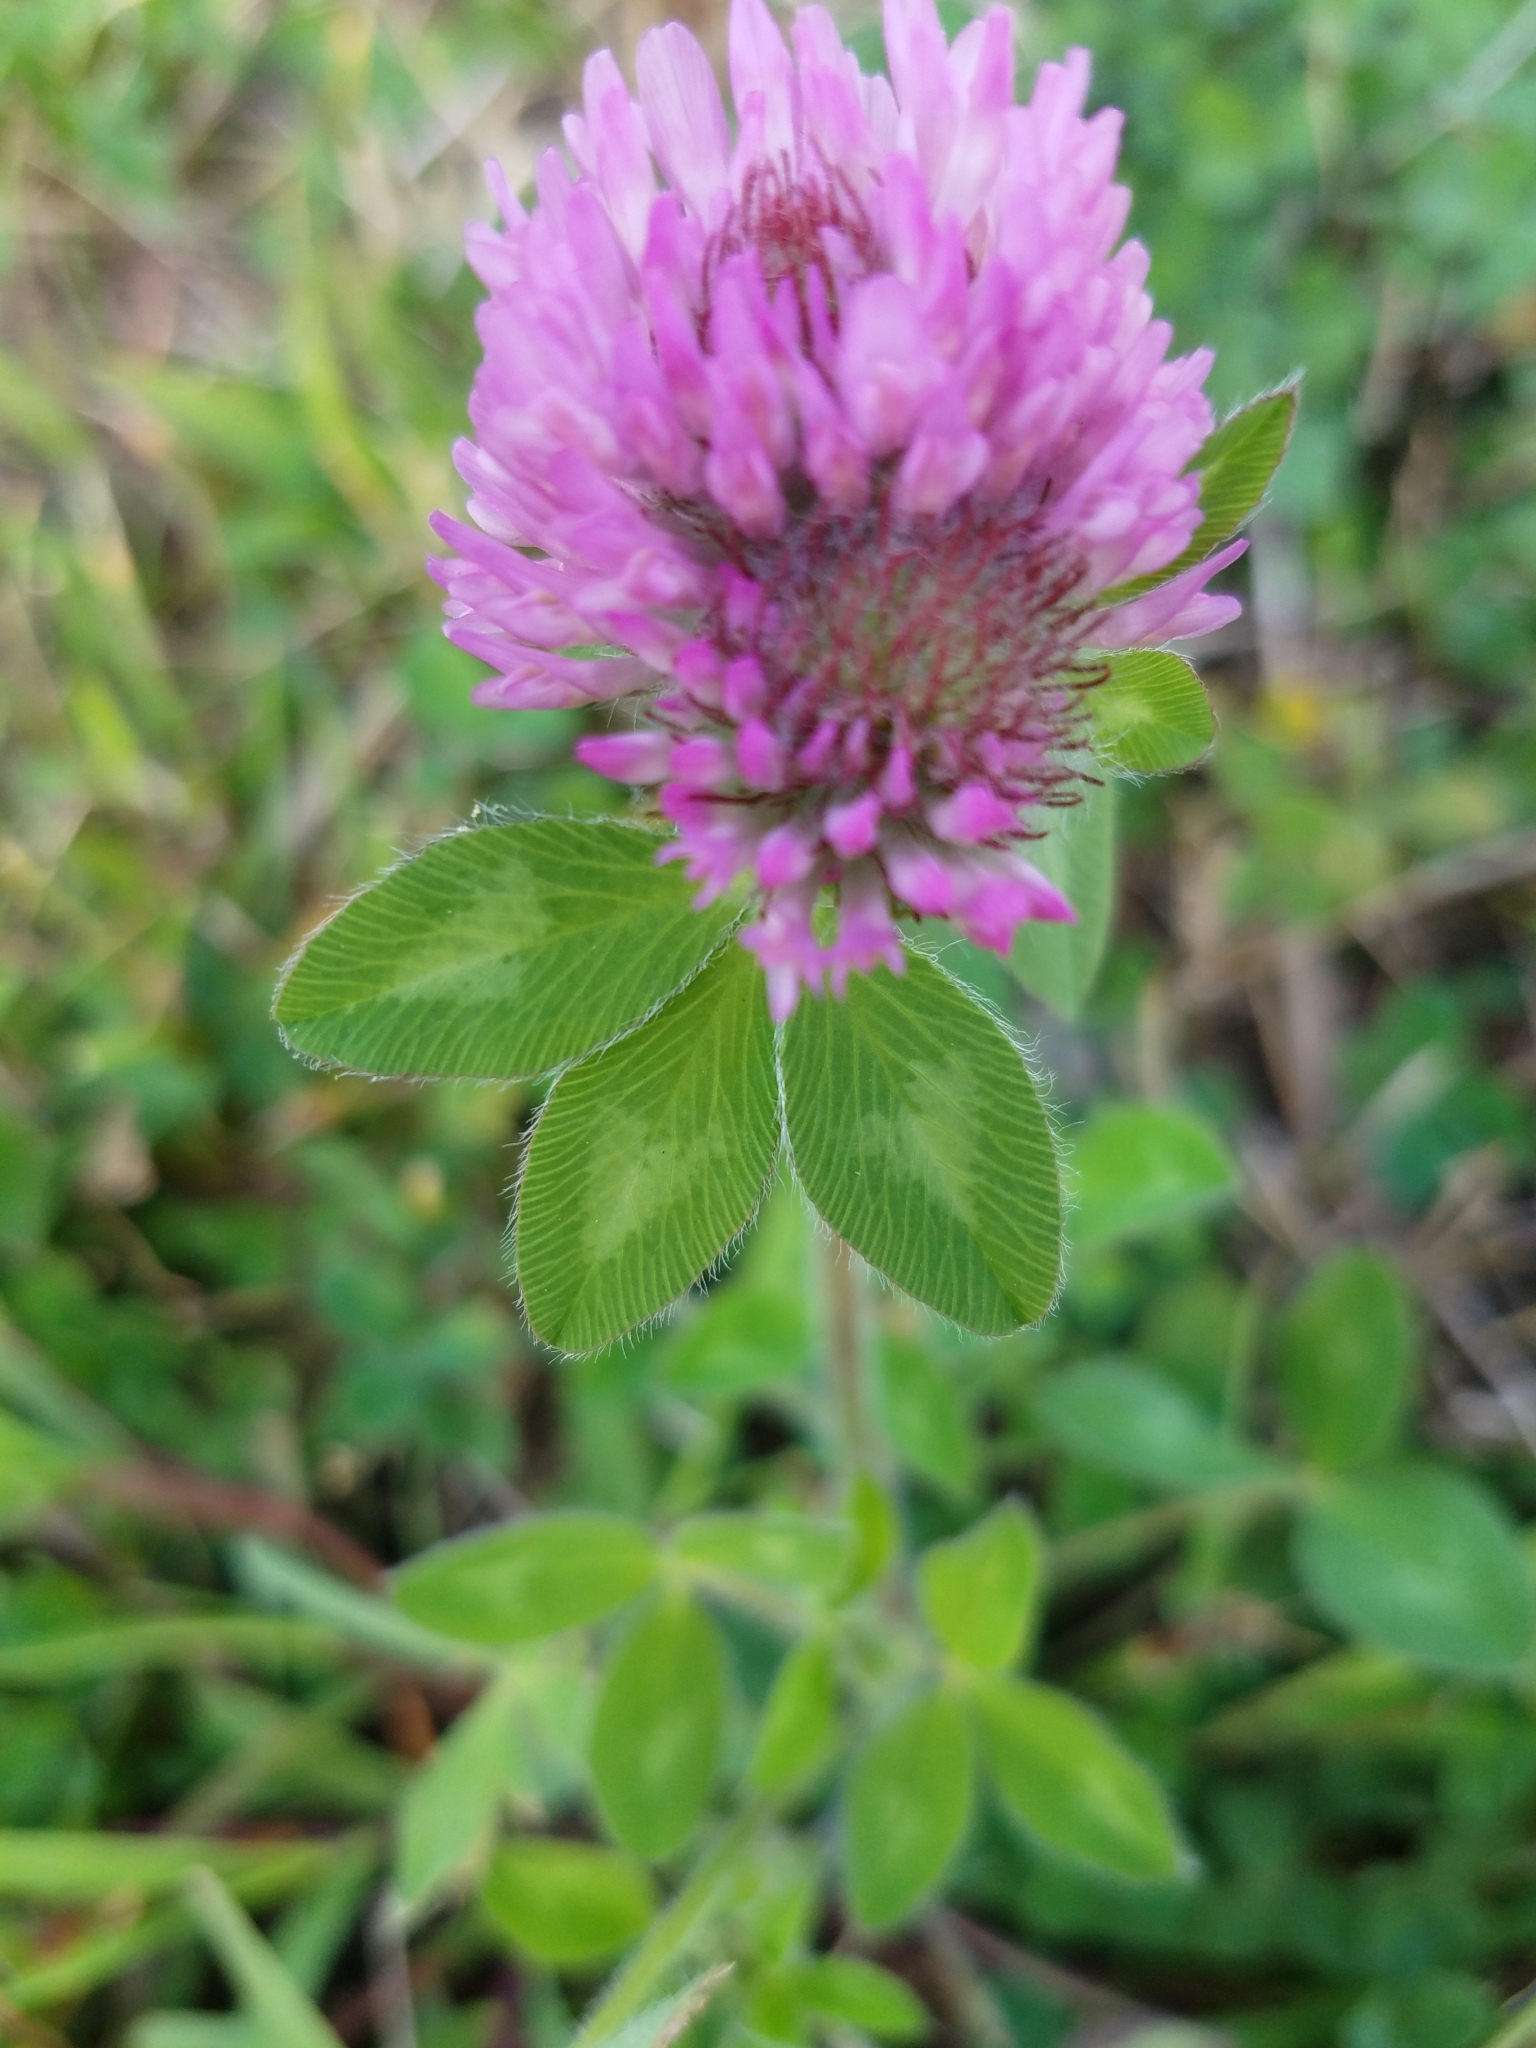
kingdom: Plantae
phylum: Tracheophyta
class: Magnoliopsida
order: Fabales
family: Fabaceae
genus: Trifolium
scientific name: Trifolium pratense
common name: Red clover
